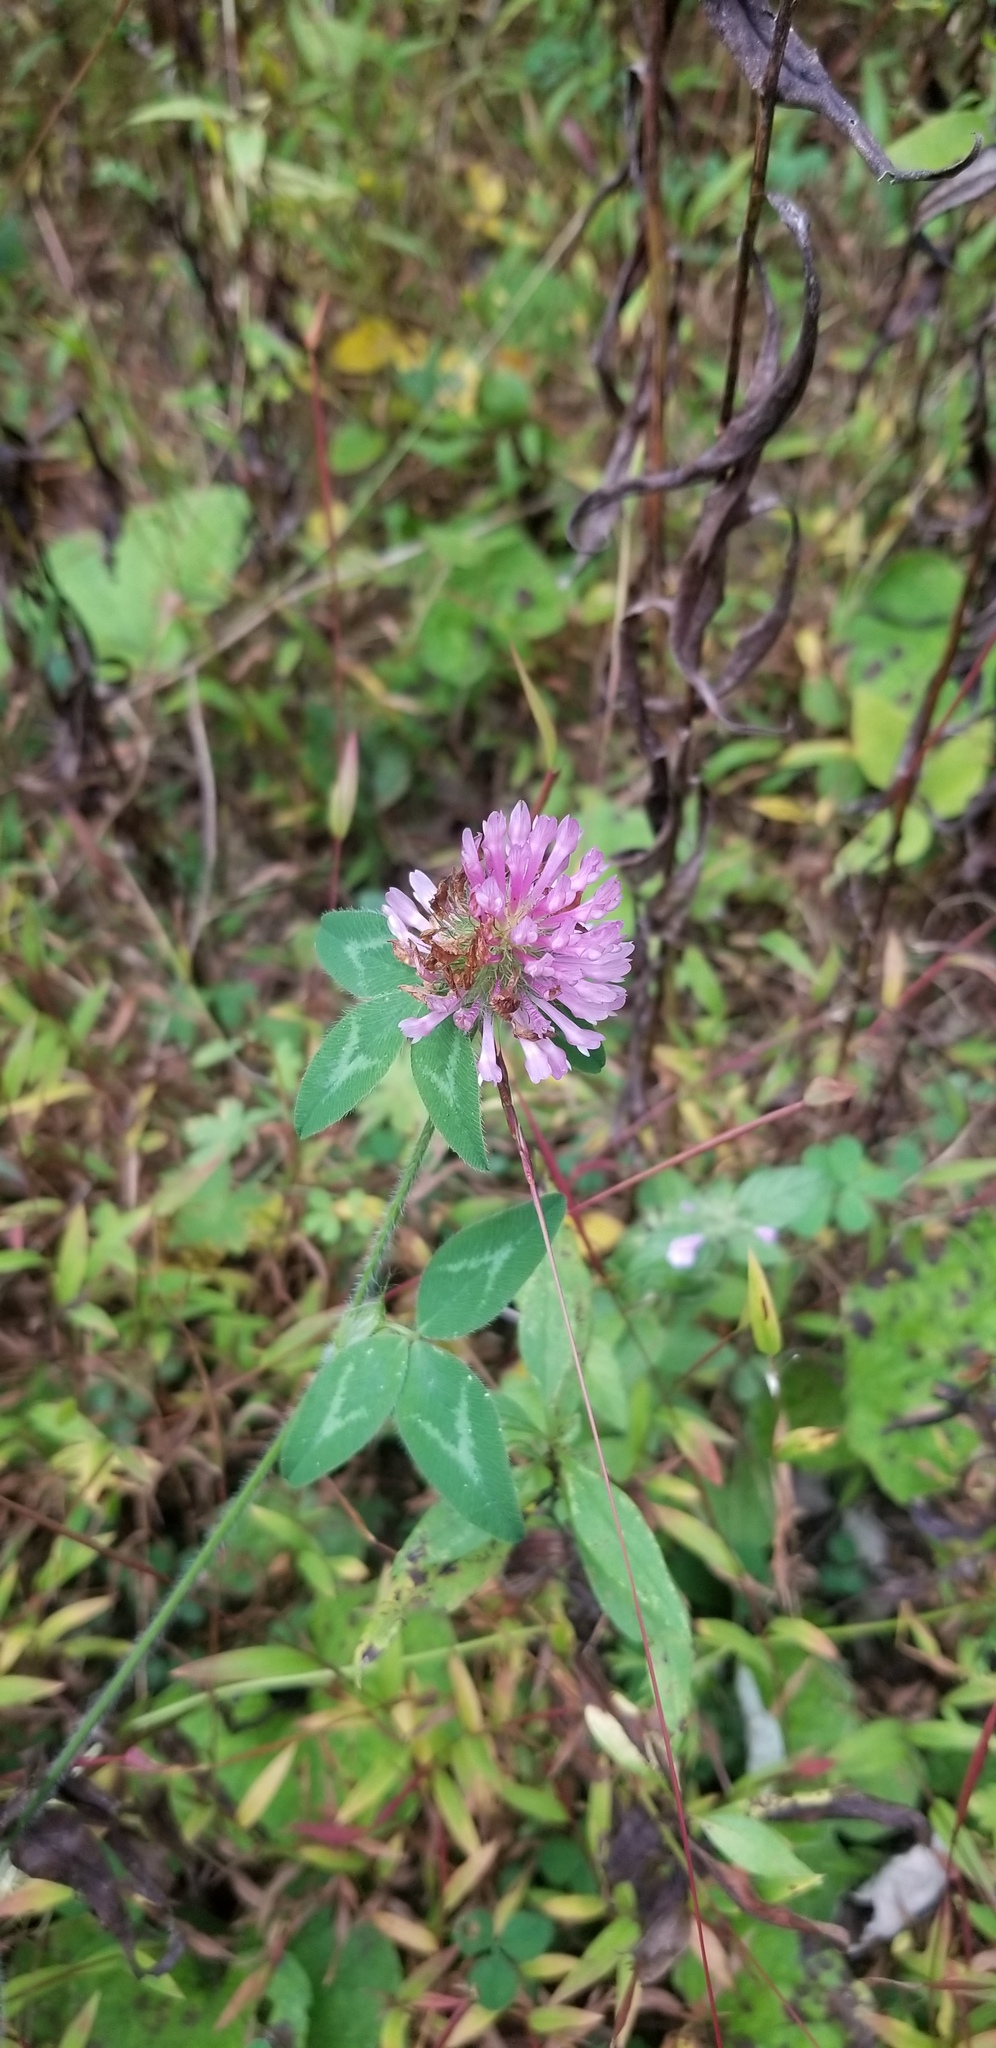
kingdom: Plantae
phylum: Tracheophyta
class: Magnoliopsida
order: Fabales
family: Fabaceae
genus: Trifolium
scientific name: Trifolium pratense
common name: Red clover
